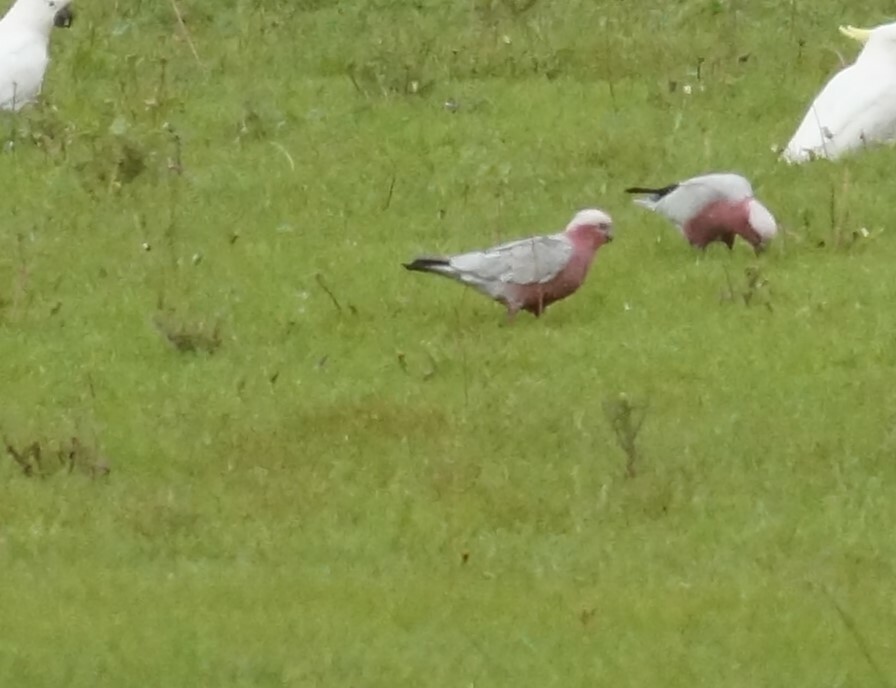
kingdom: Animalia
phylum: Chordata
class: Aves
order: Psittaciformes
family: Psittacidae
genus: Eolophus
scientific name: Eolophus roseicapilla
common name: Galah
